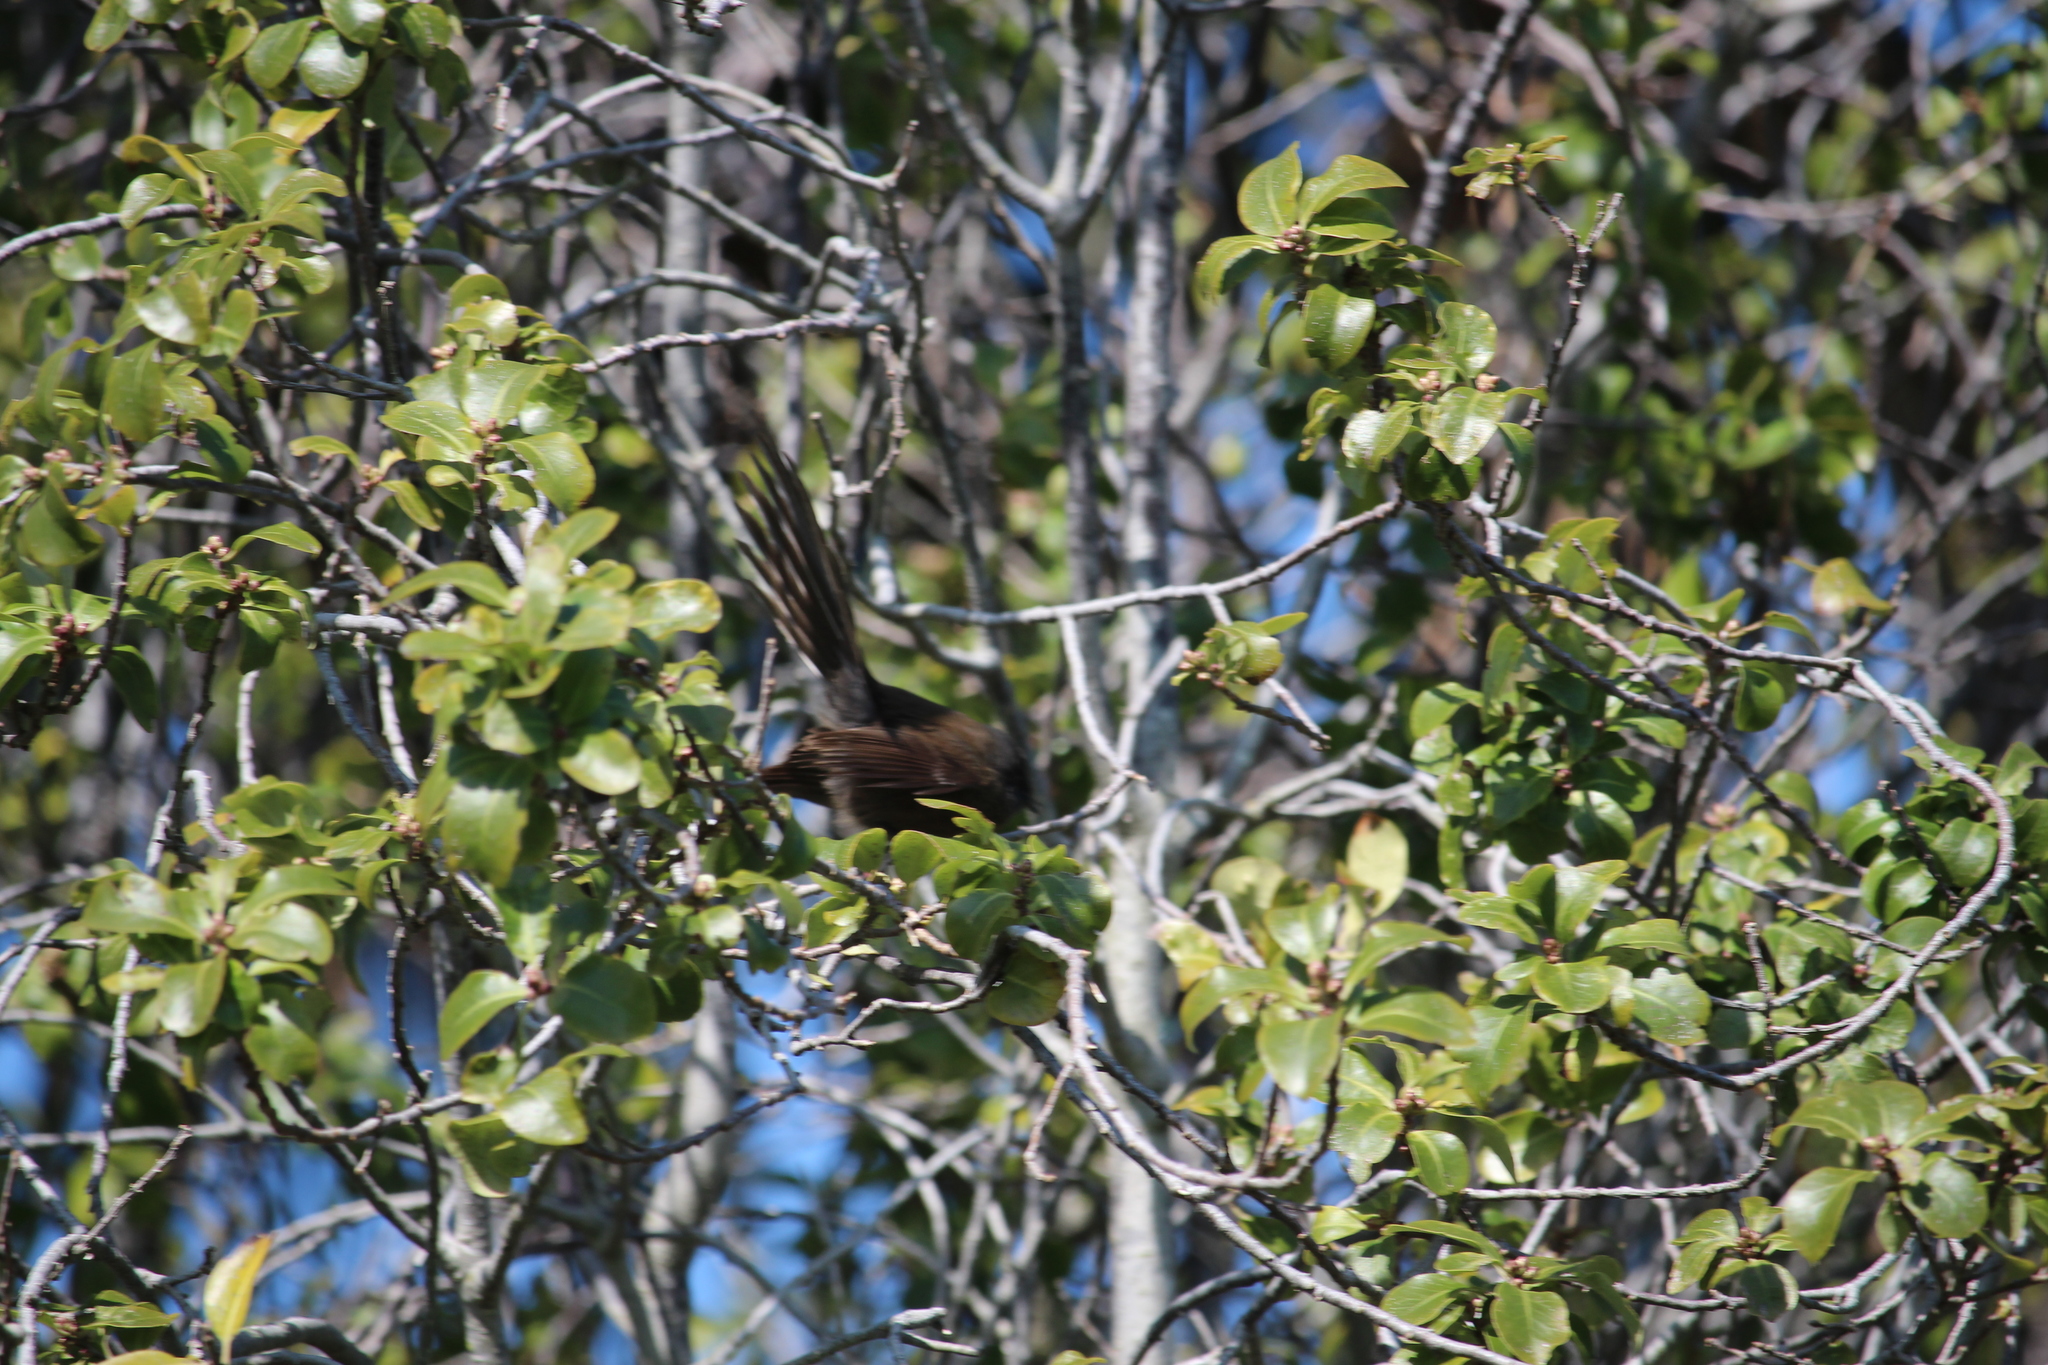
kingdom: Animalia
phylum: Chordata
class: Aves
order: Passeriformes
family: Rhipiduridae
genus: Rhipidura
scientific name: Rhipidura fuliginosa
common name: New zealand fantail
